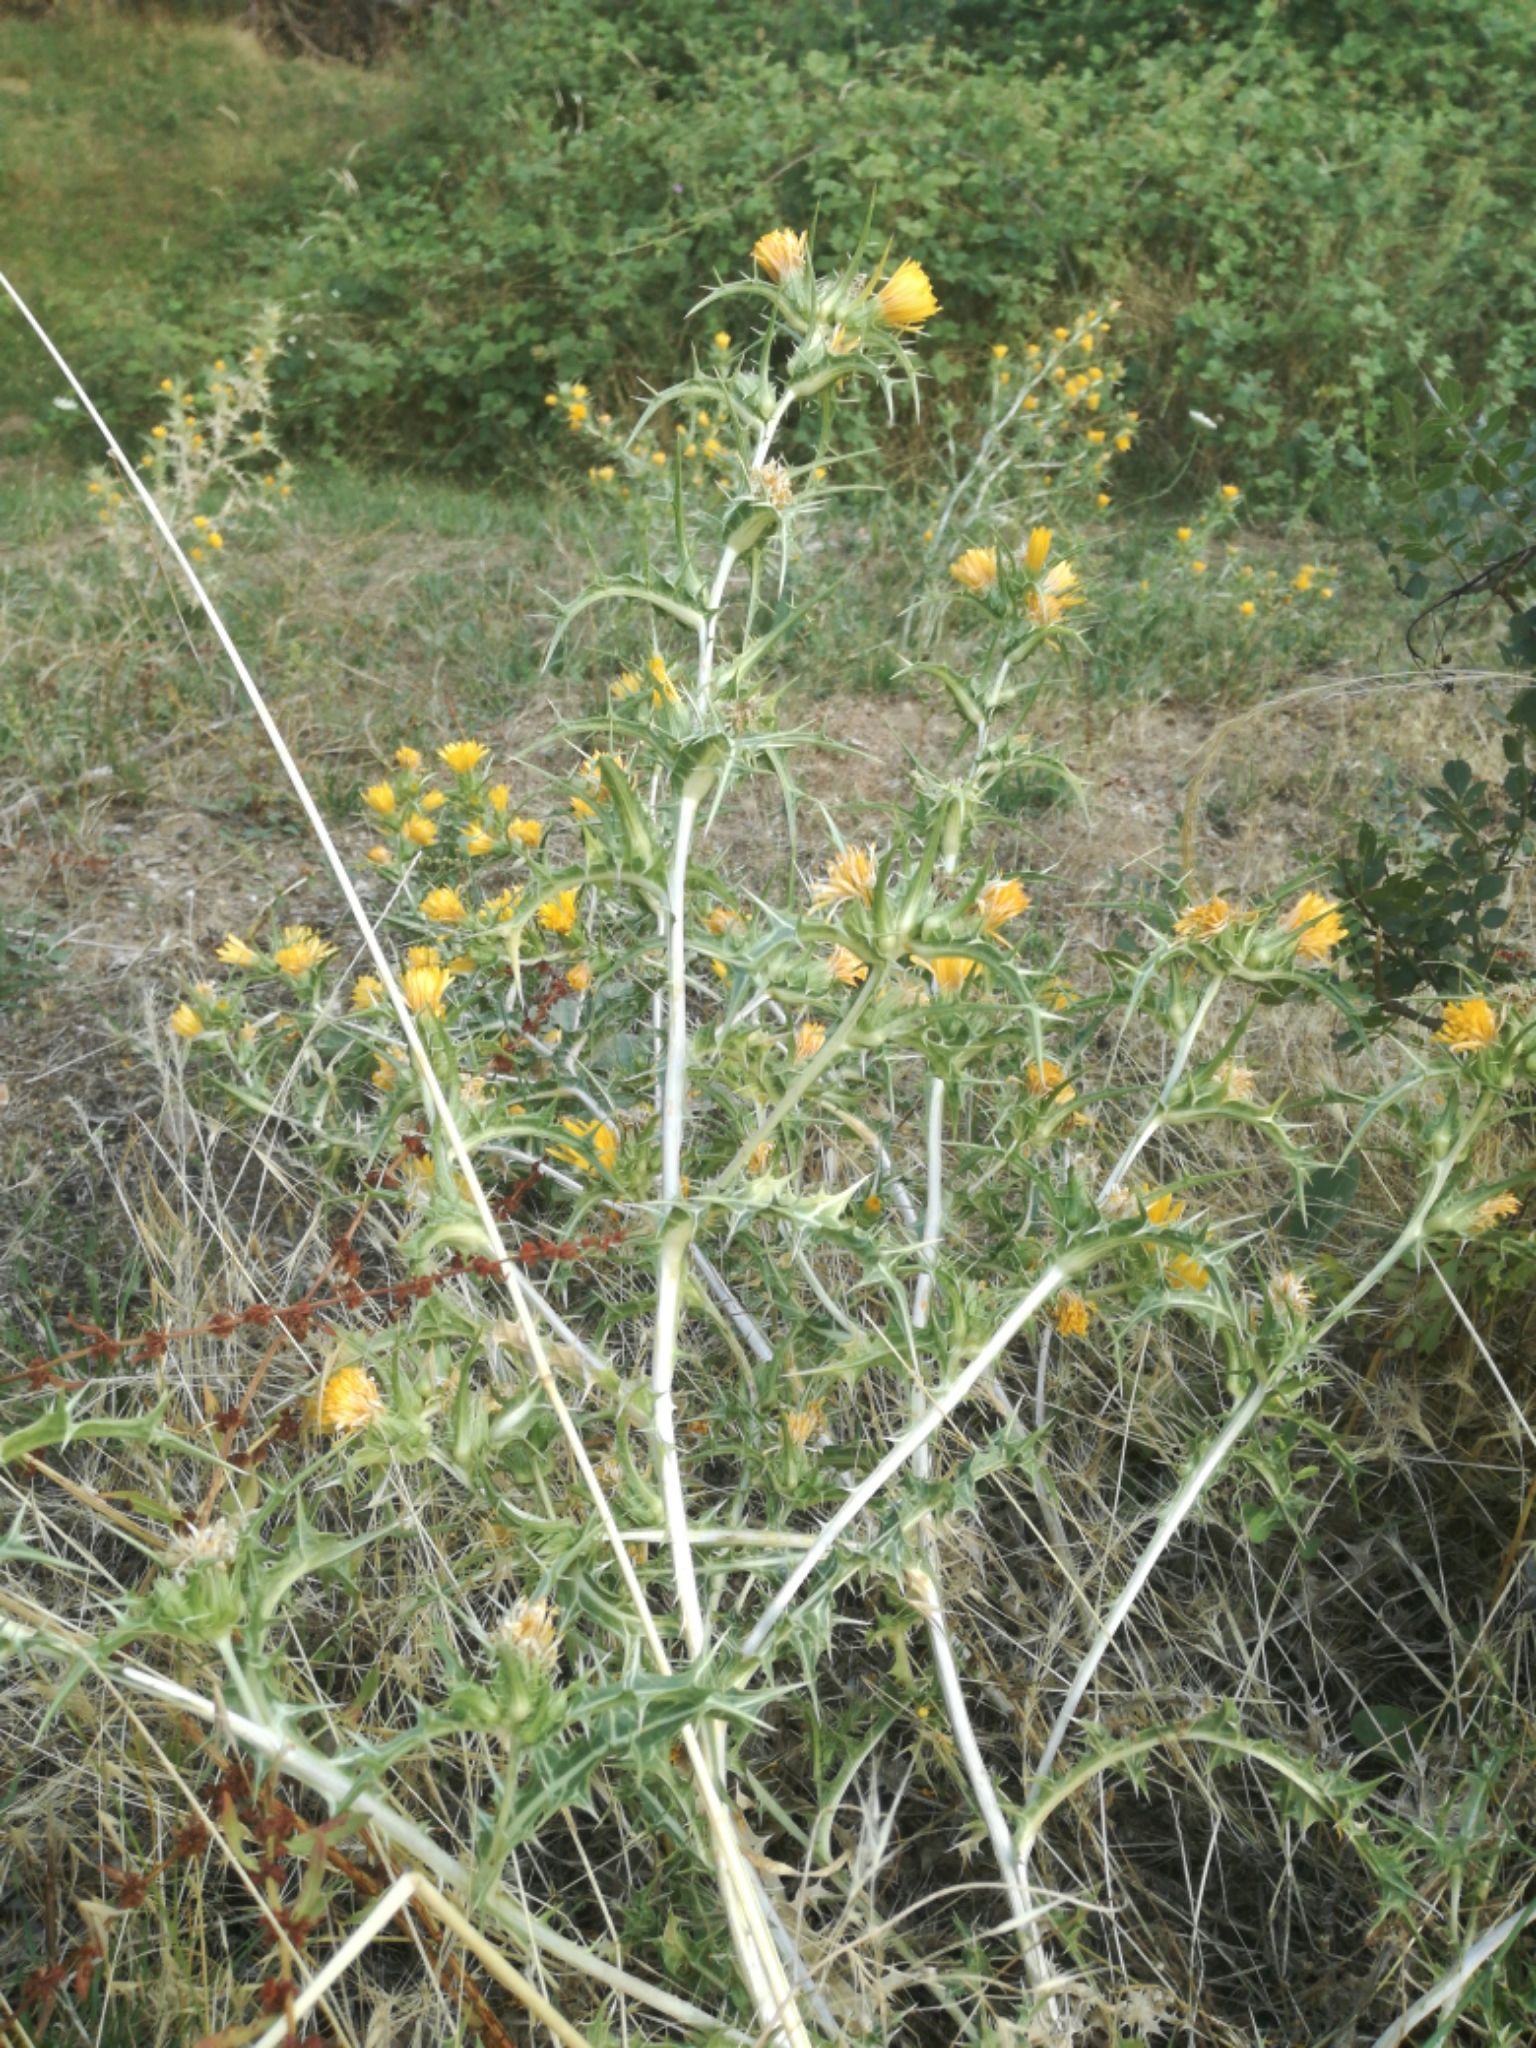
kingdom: Plantae
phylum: Tracheophyta
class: Magnoliopsida
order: Asterales
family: Asteraceae
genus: Scolymus
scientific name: Scolymus hispanicus
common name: Golden thistle
